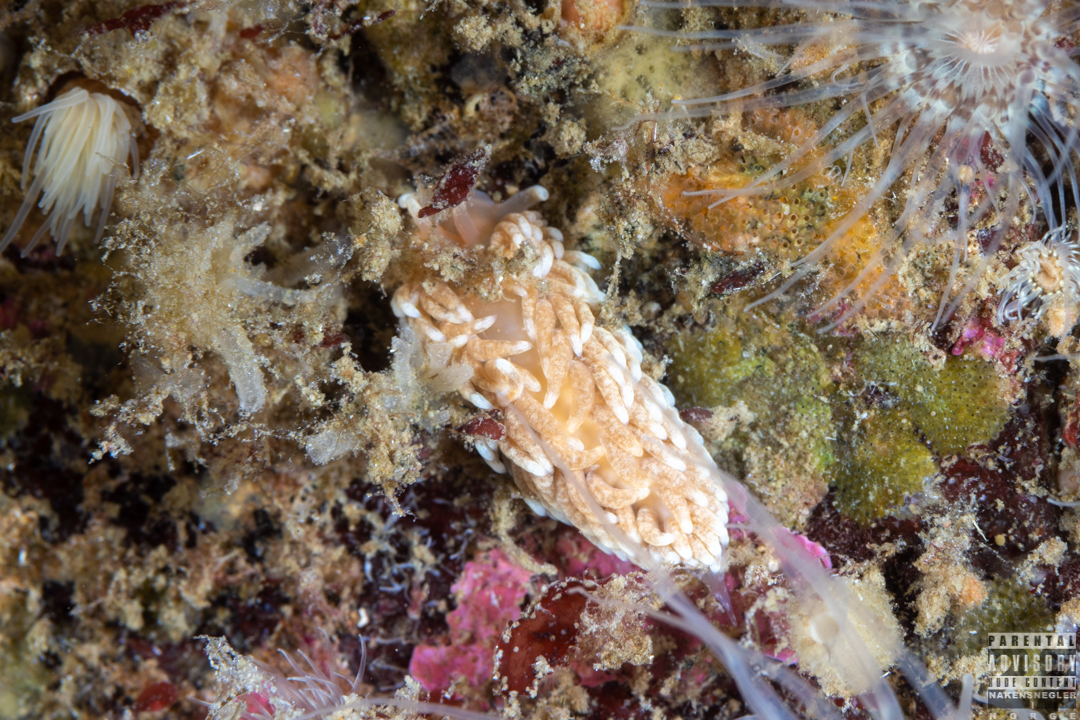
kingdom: Animalia
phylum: Mollusca
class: Gastropoda
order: Nudibranchia
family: Aeolidiidae
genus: Aeolidiella
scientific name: Aeolidiella glauca
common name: Orange-brown aeolid
